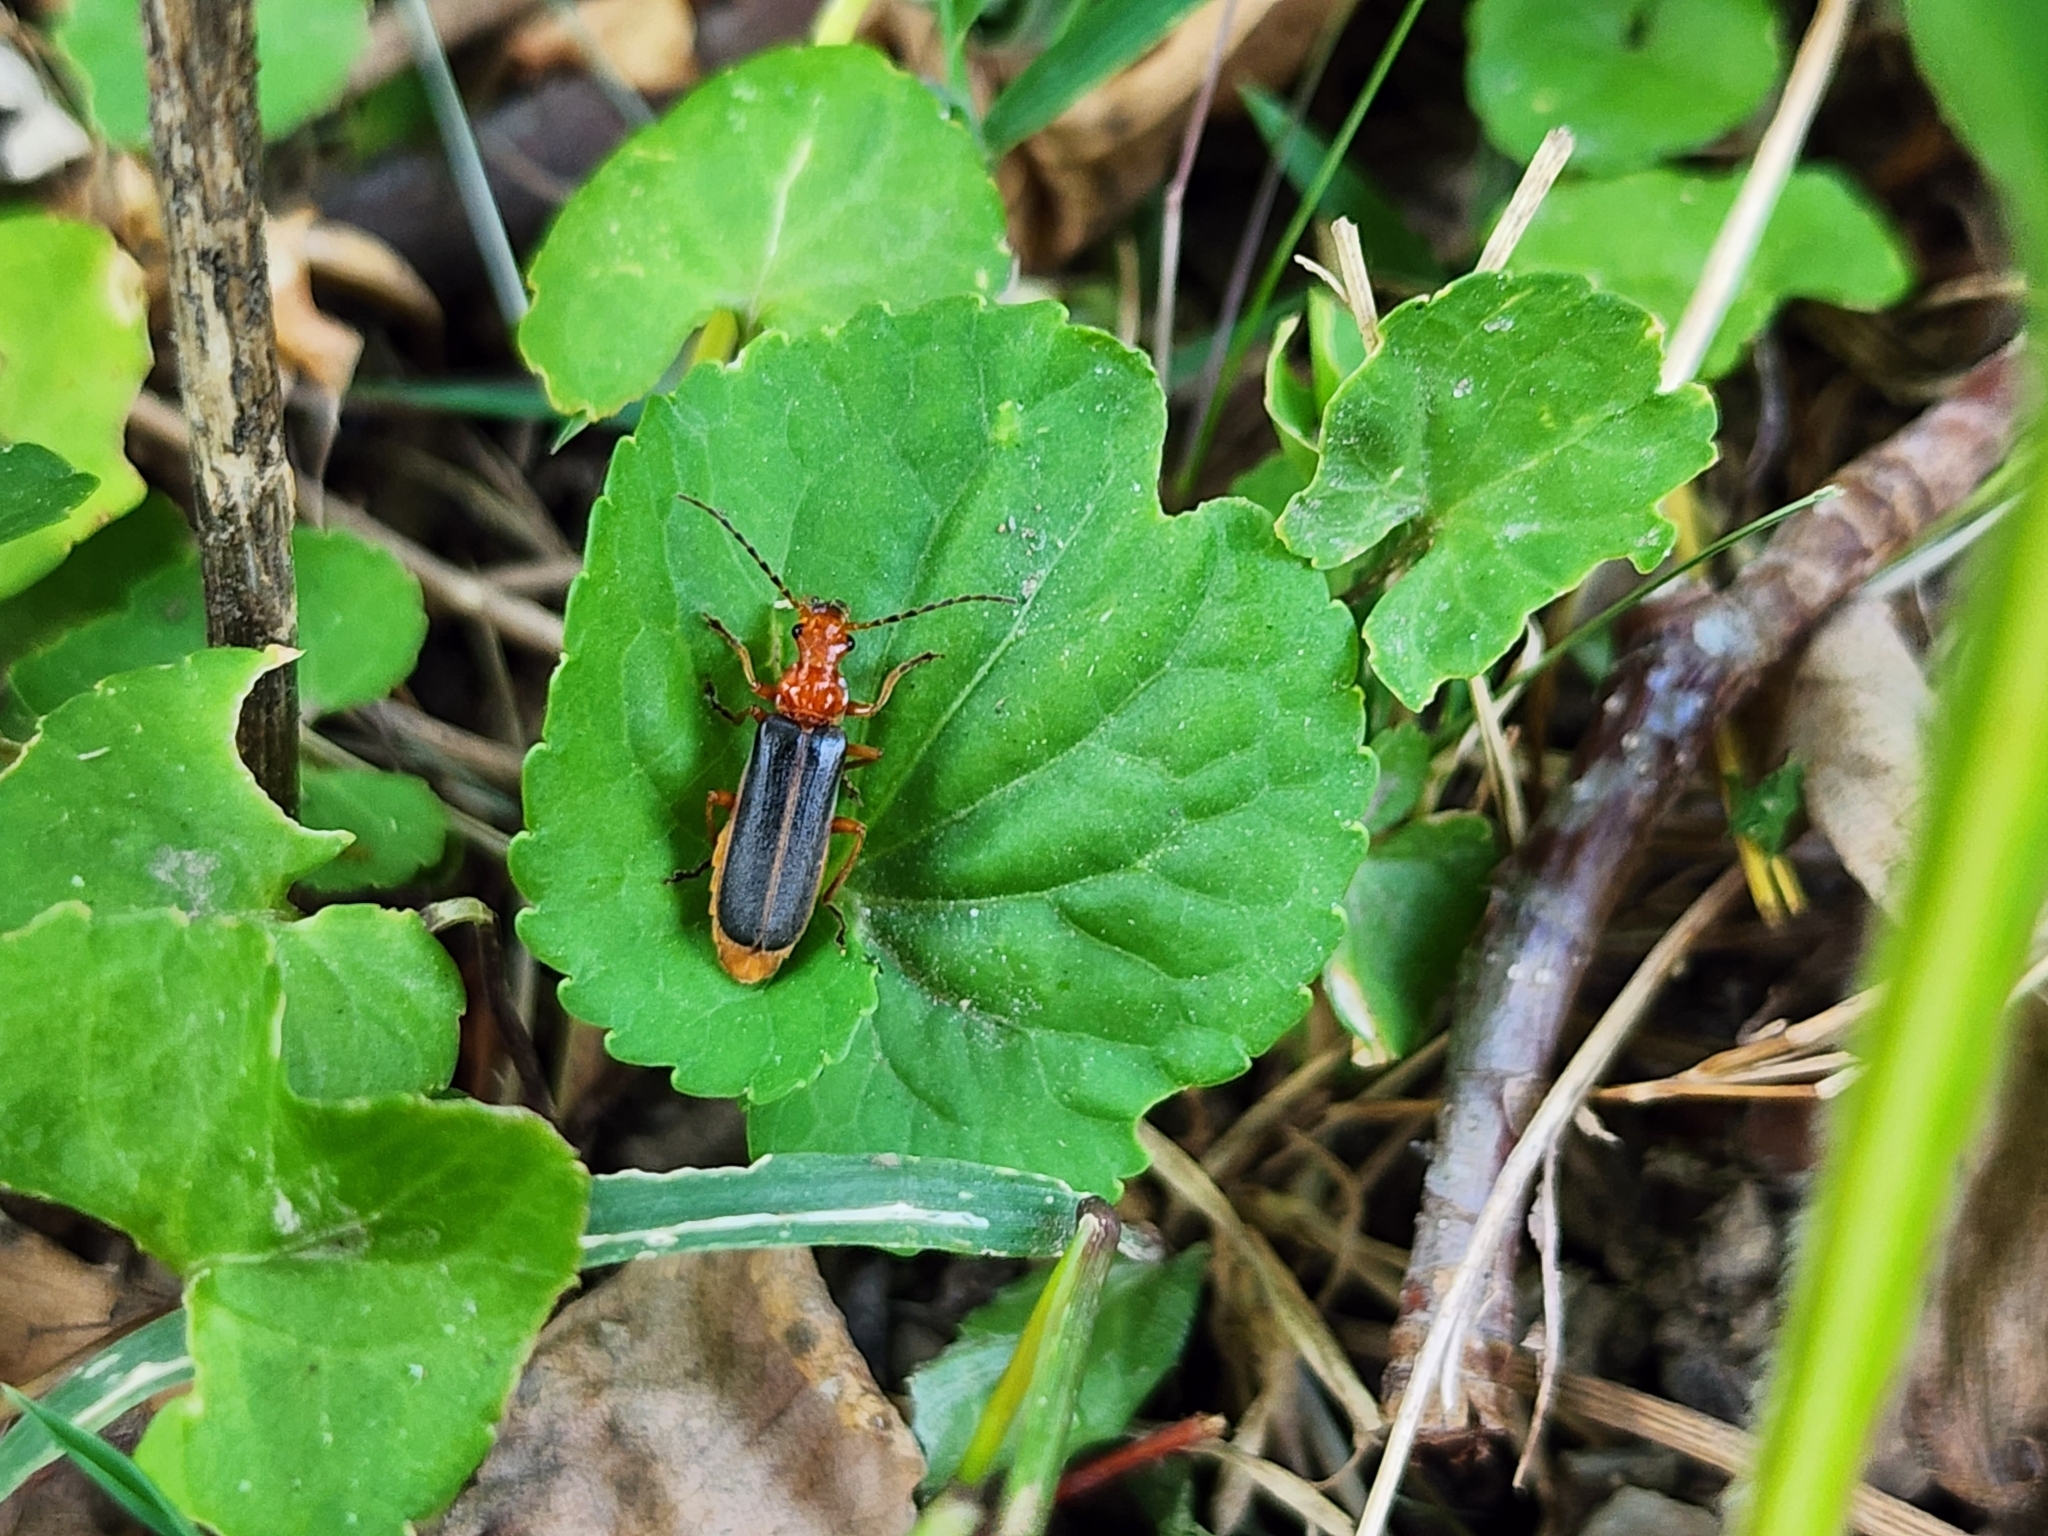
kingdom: Animalia
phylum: Arthropoda
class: Insecta
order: Coleoptera
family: Cantharidae
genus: Podabrus
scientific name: Podabrus tomentosus
